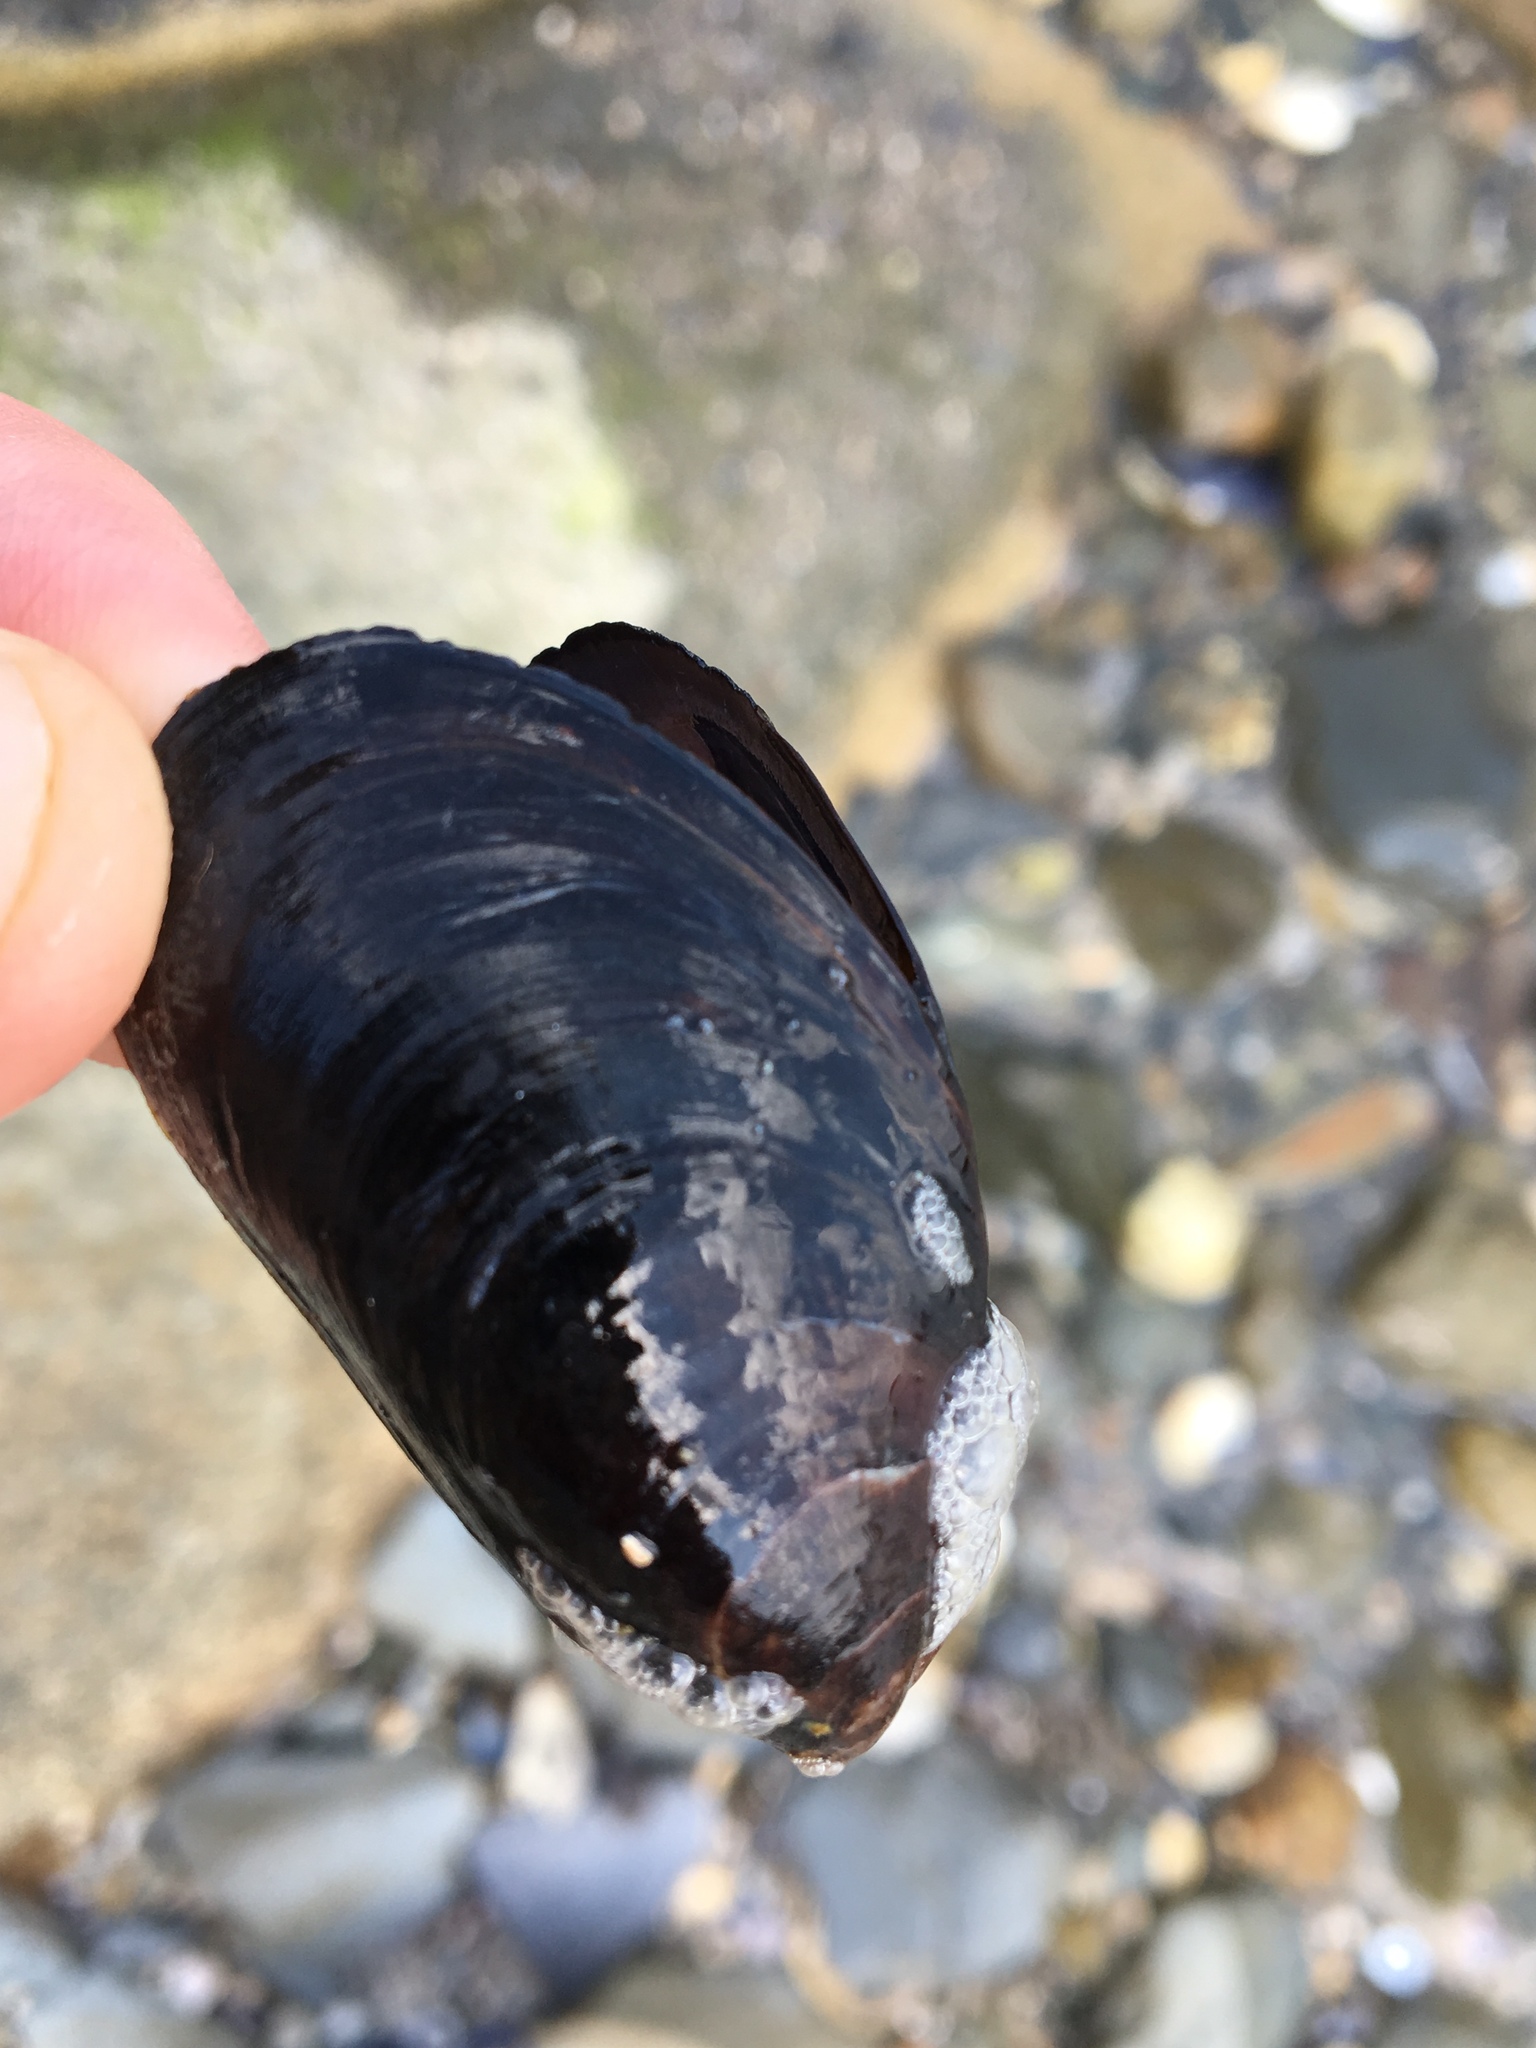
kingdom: Animalia
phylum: Mollusca
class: Bivalvia
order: Mytilida
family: Mytilidae
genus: Mytilus
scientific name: Mytilus edulis
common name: Blue mussel
